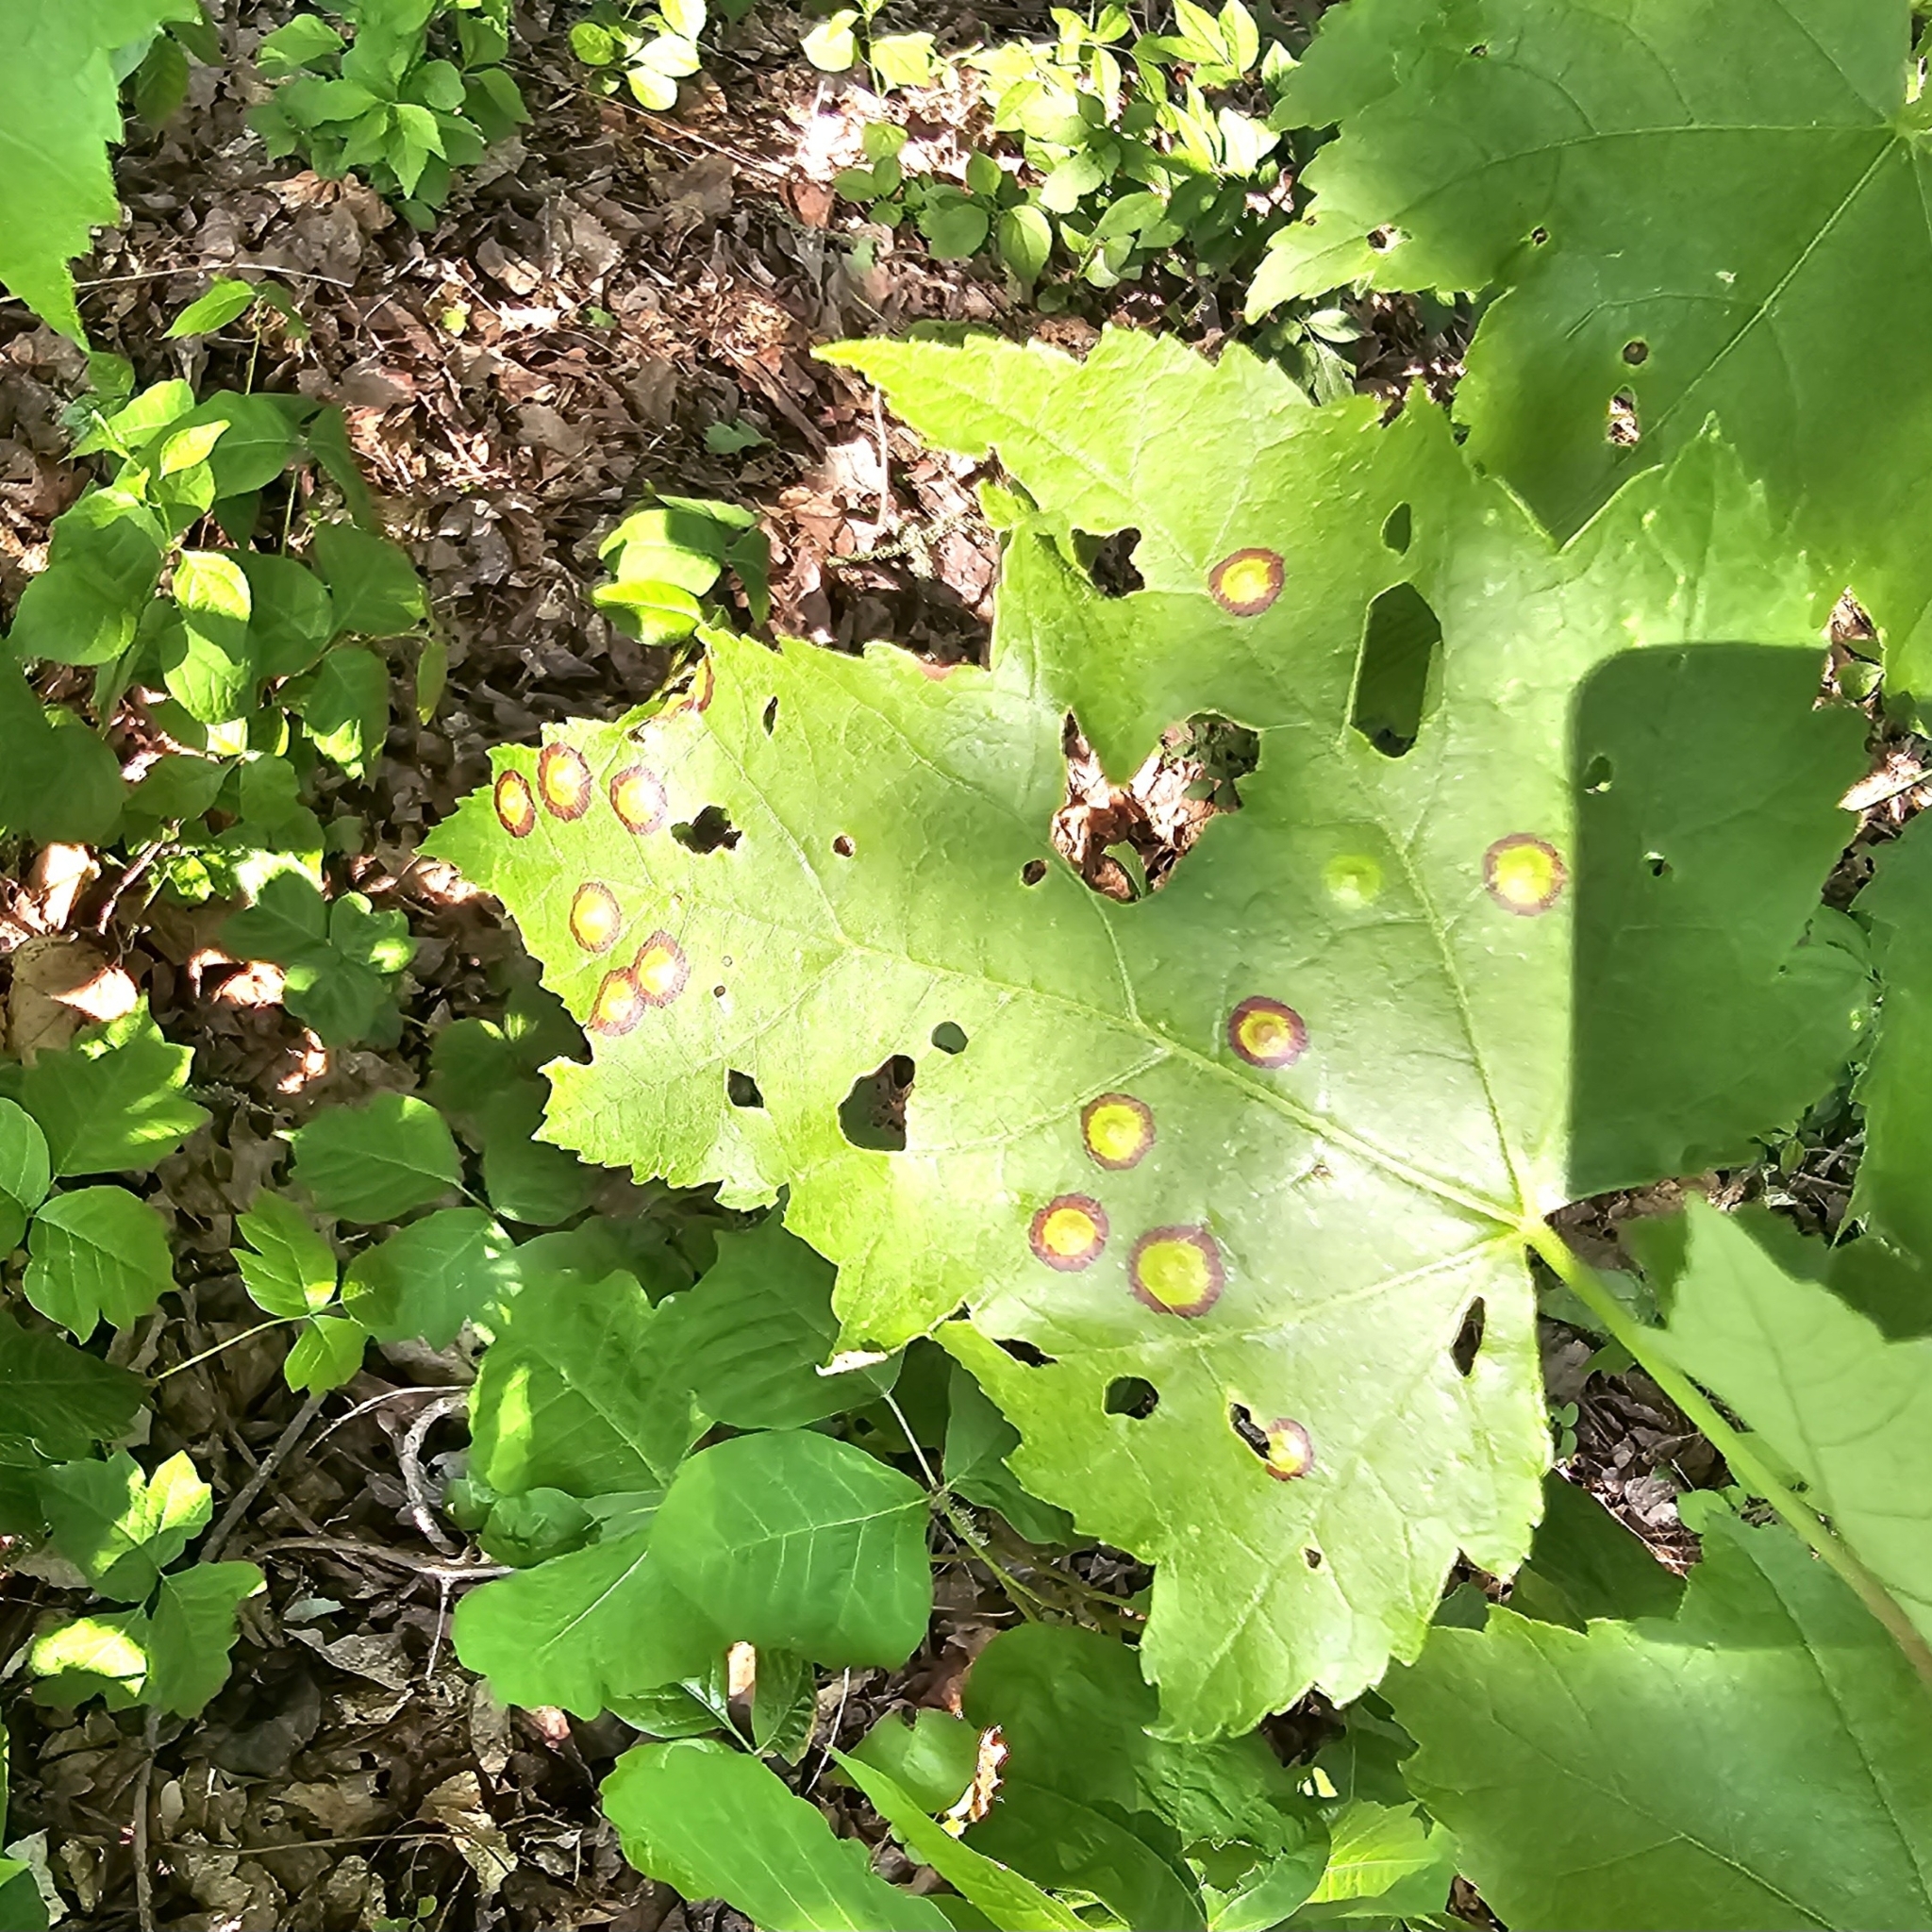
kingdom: Animalia
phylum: Arthropoda
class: Insecta
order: Diptera
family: Cecidomyiidae
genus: Acericecis
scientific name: Acericecis ocellaris
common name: Ocellate gall midge
